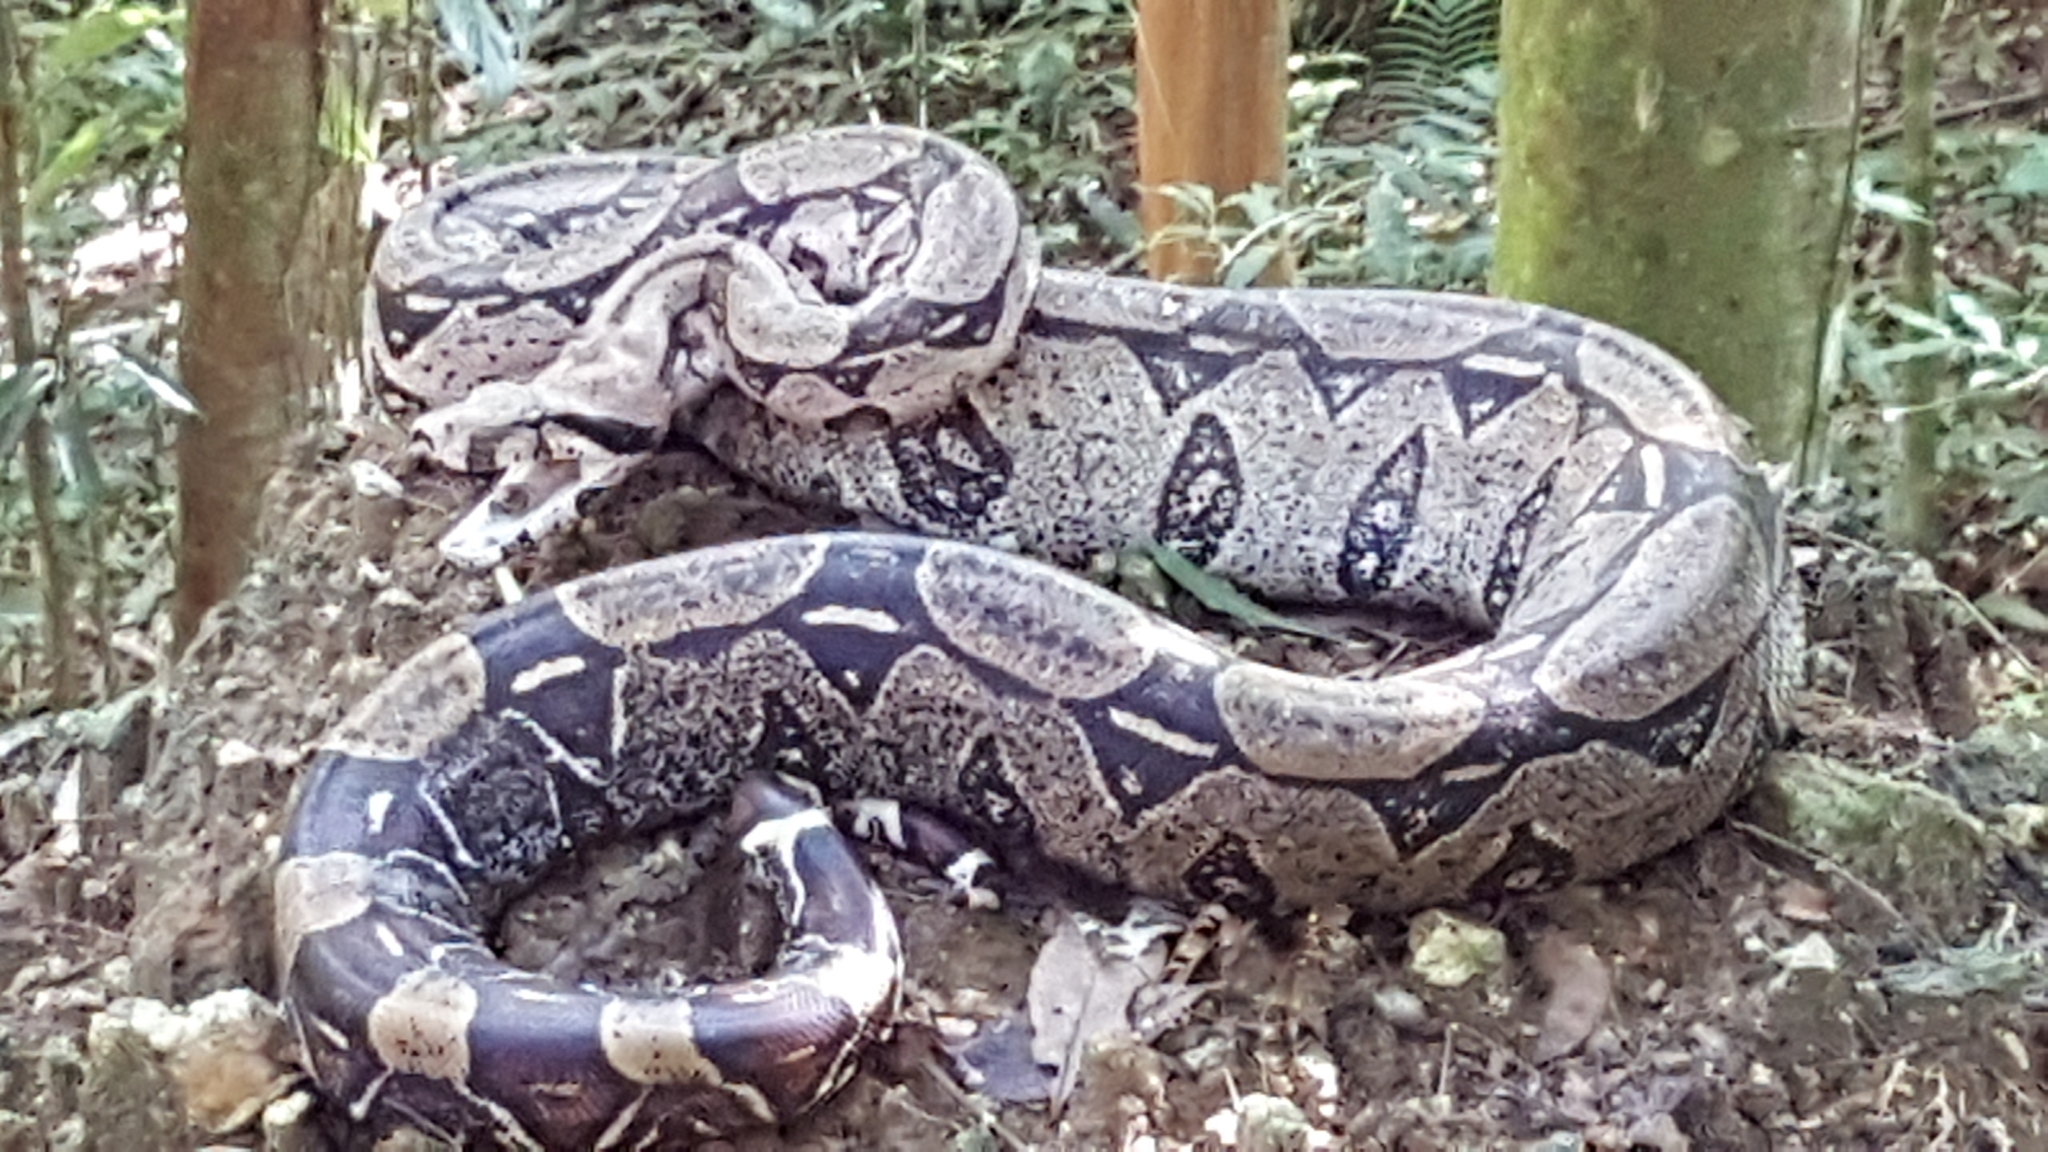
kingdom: Animalia
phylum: Chordata
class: Squamata
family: Boidae
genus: Boa
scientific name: Boa constrictor
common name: Boa constrictor
